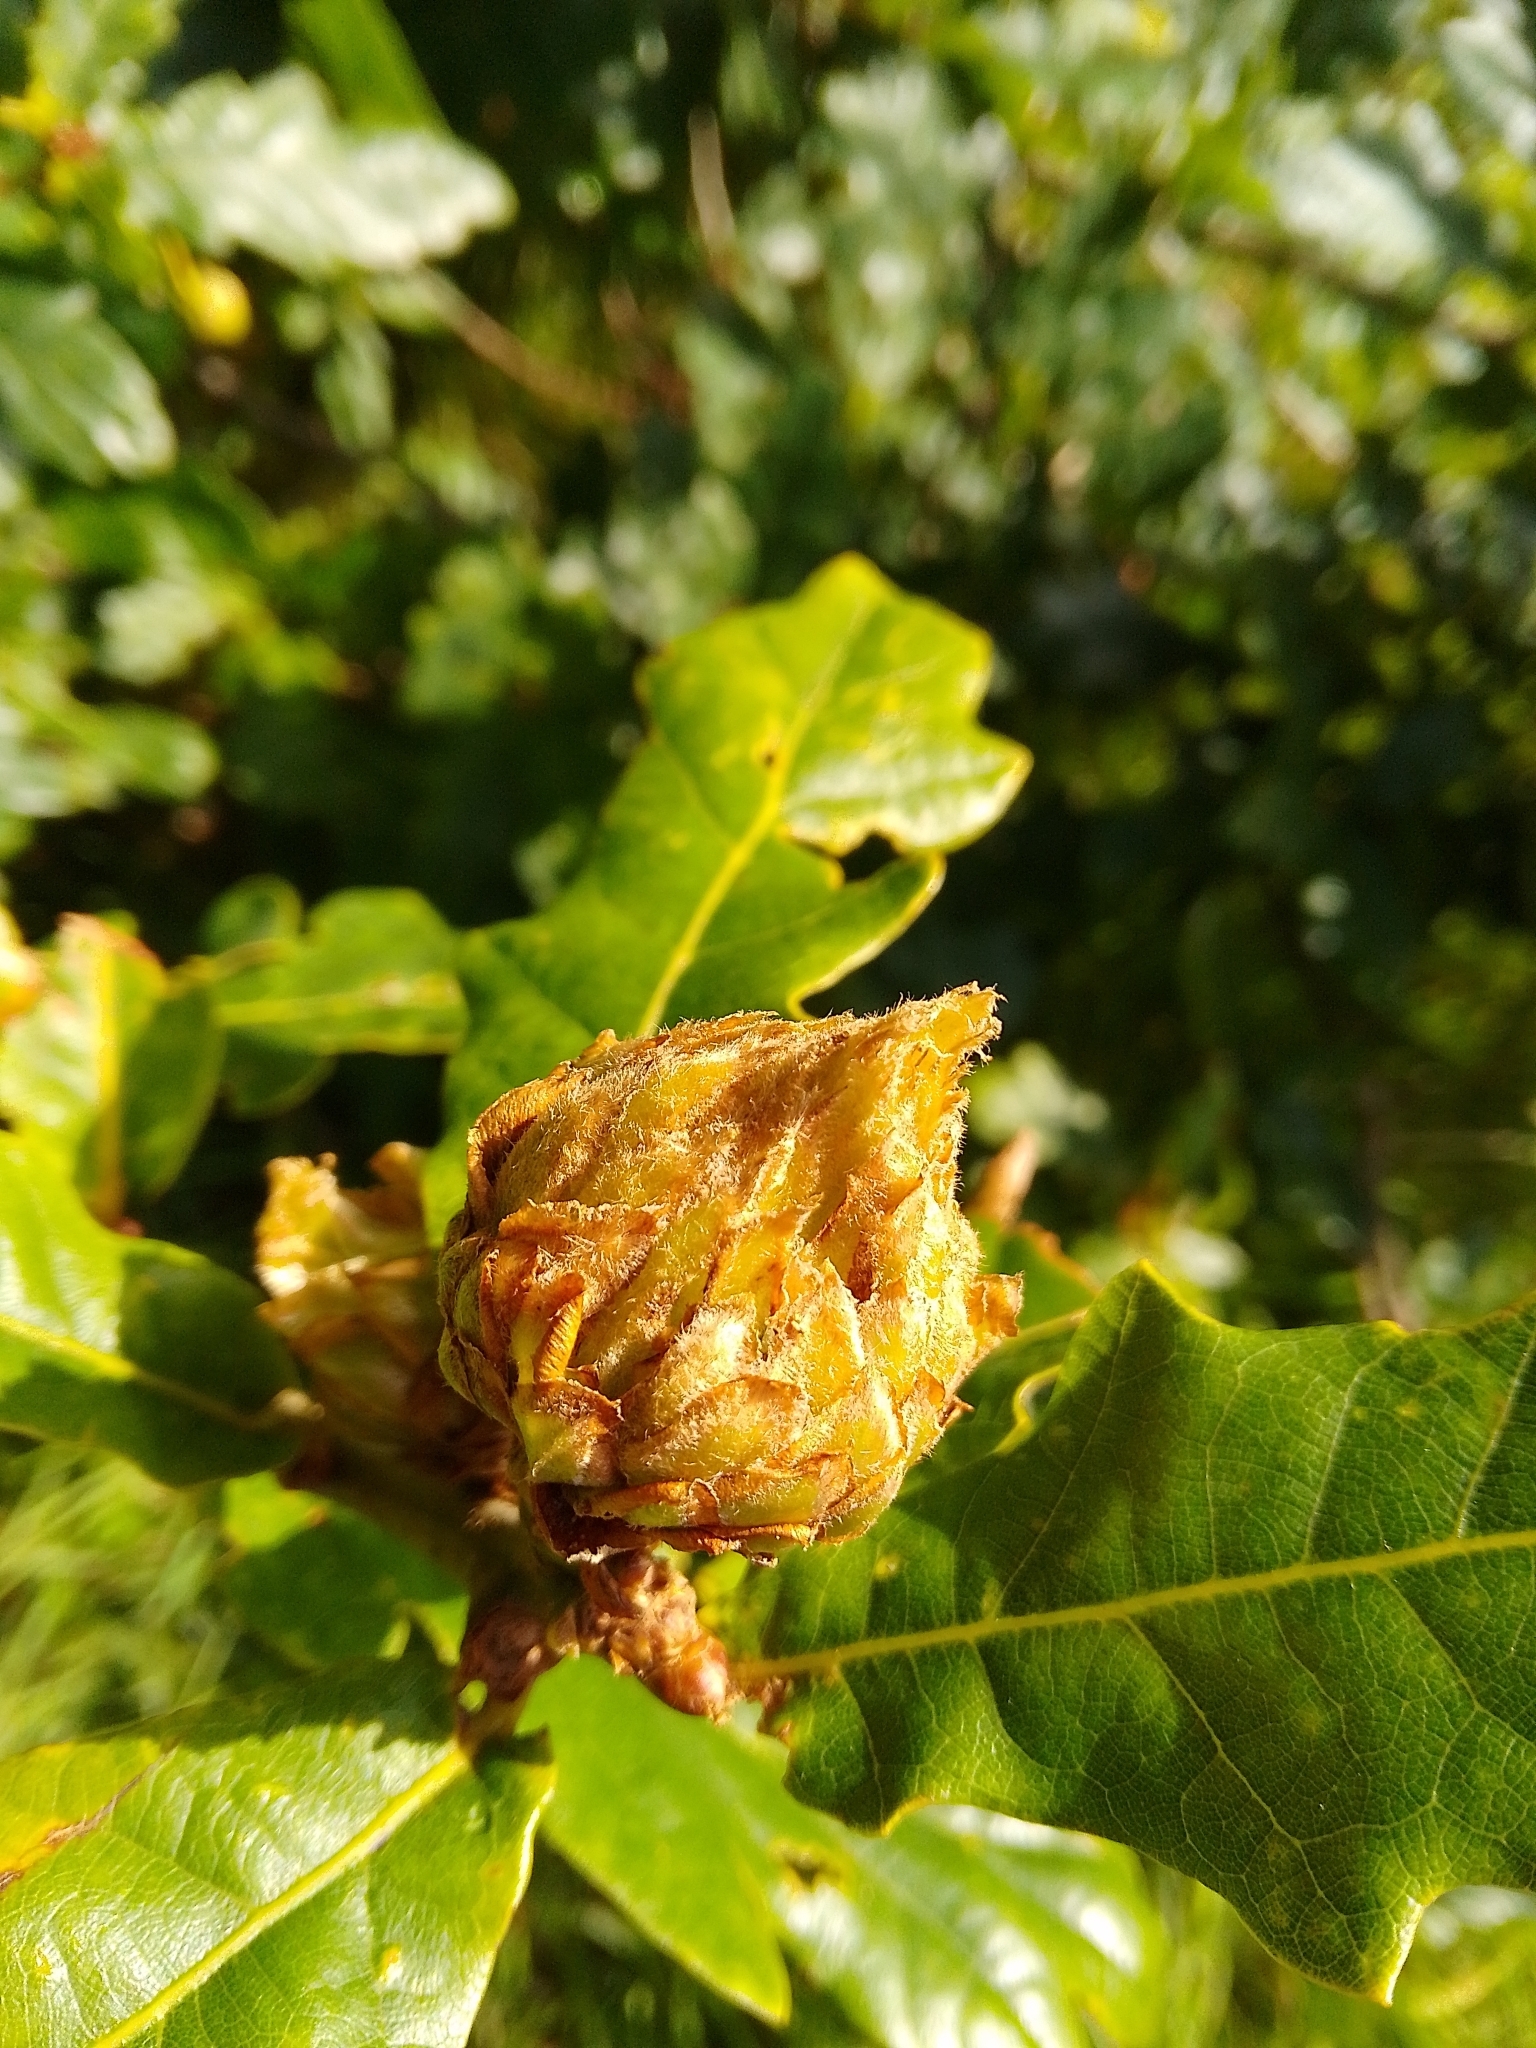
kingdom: Animalia
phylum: Arthropoda
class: Insecta
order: Hymenoptera
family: Cynipidae
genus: Andricus
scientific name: Andricus foecundatrix
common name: Artichoke gall
